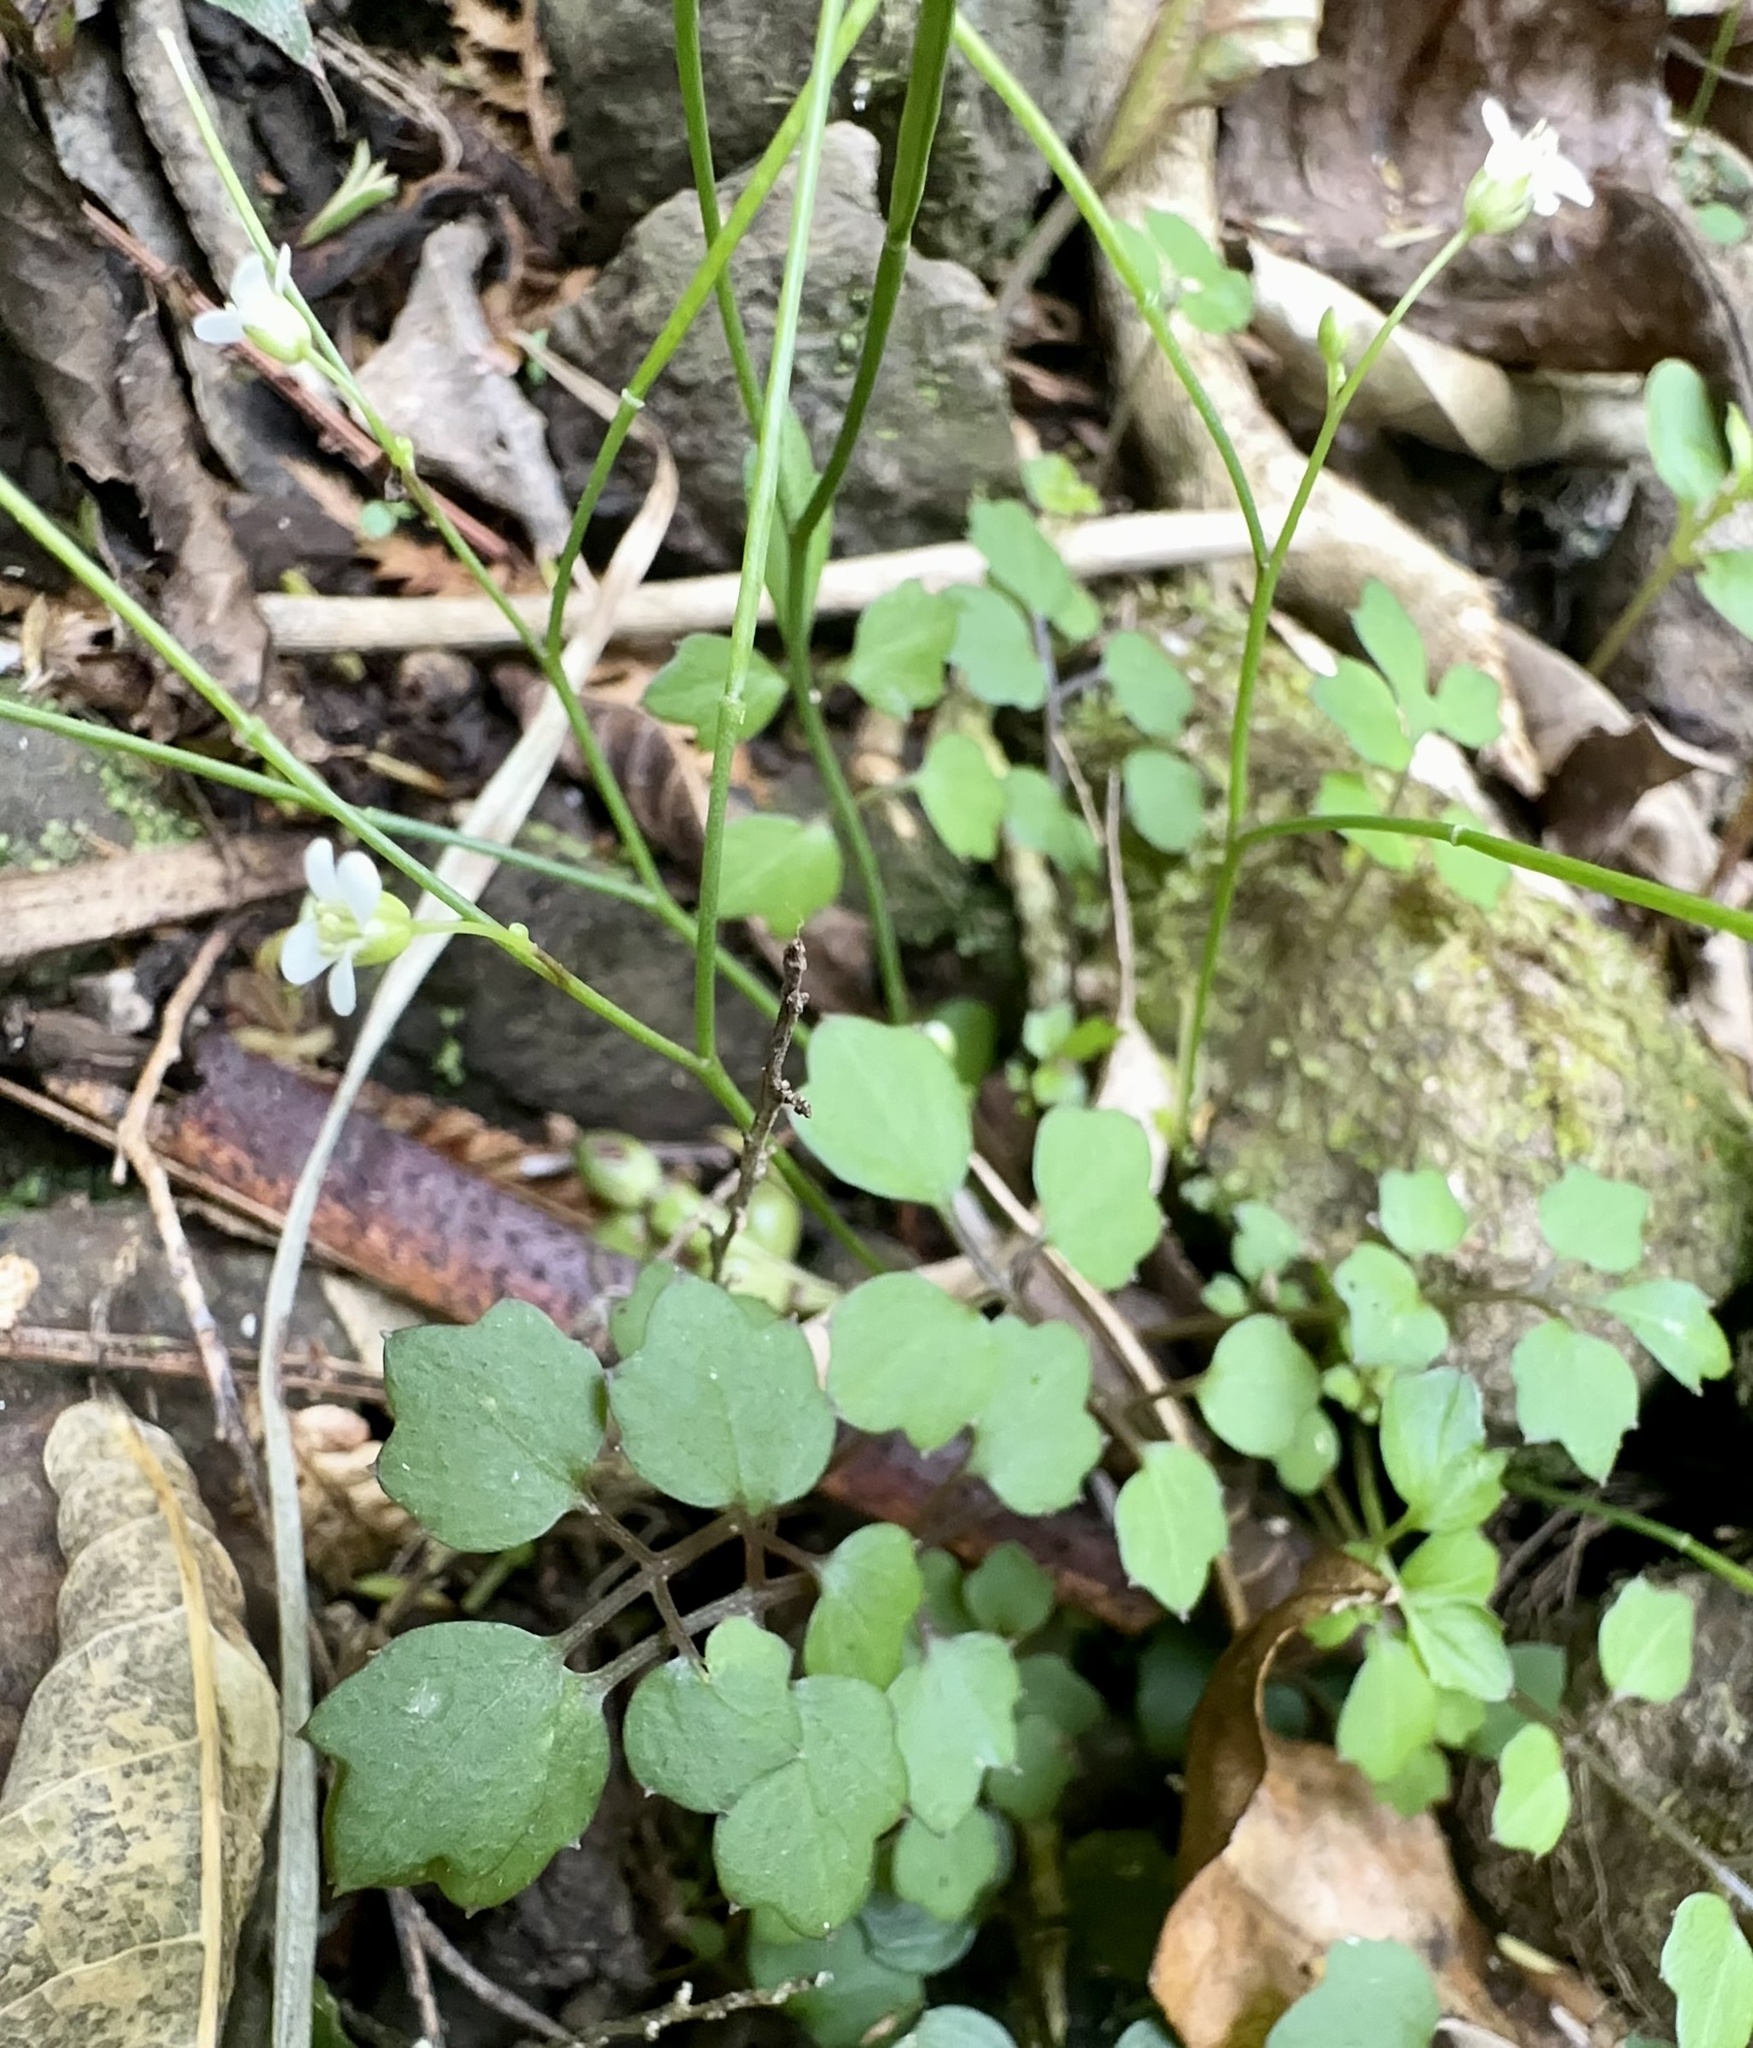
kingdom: Plantae
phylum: Tracheophyta
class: Magnoliopsida
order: Brassicales
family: Brassicaceae
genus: Cardamine
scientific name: Cardamine forsteri
